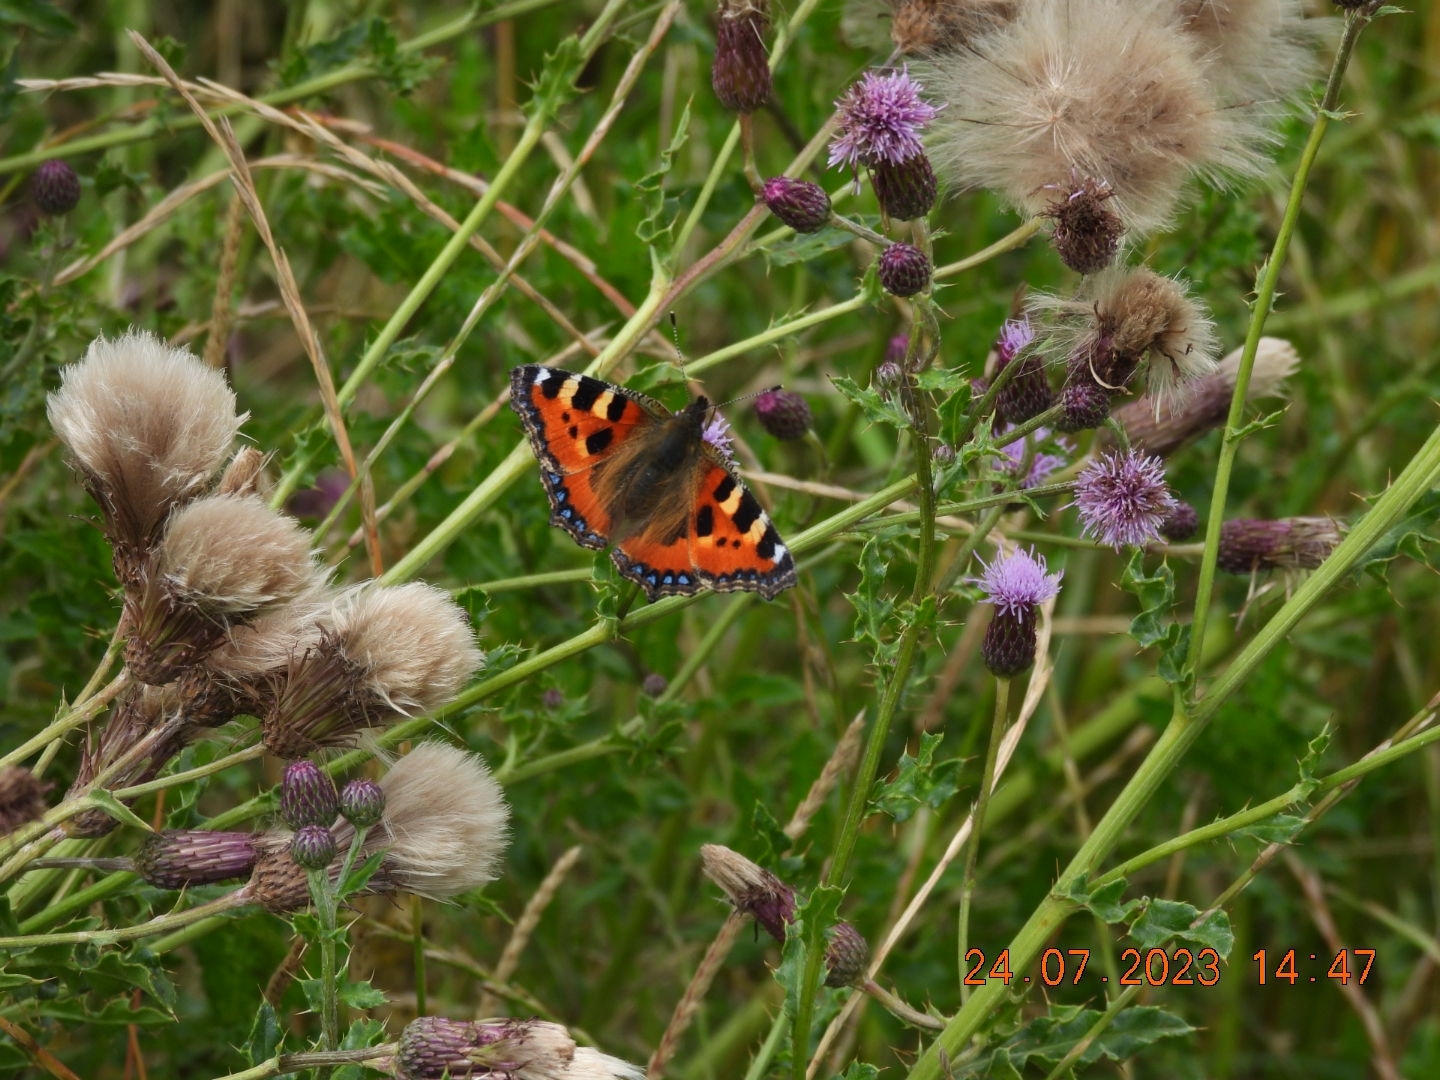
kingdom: Animalia
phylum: Arthropoda
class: Insecta
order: Lepidoptera
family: Nymphalidae
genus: Aglais
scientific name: Aglais urticae
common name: Small tortoiseshell
